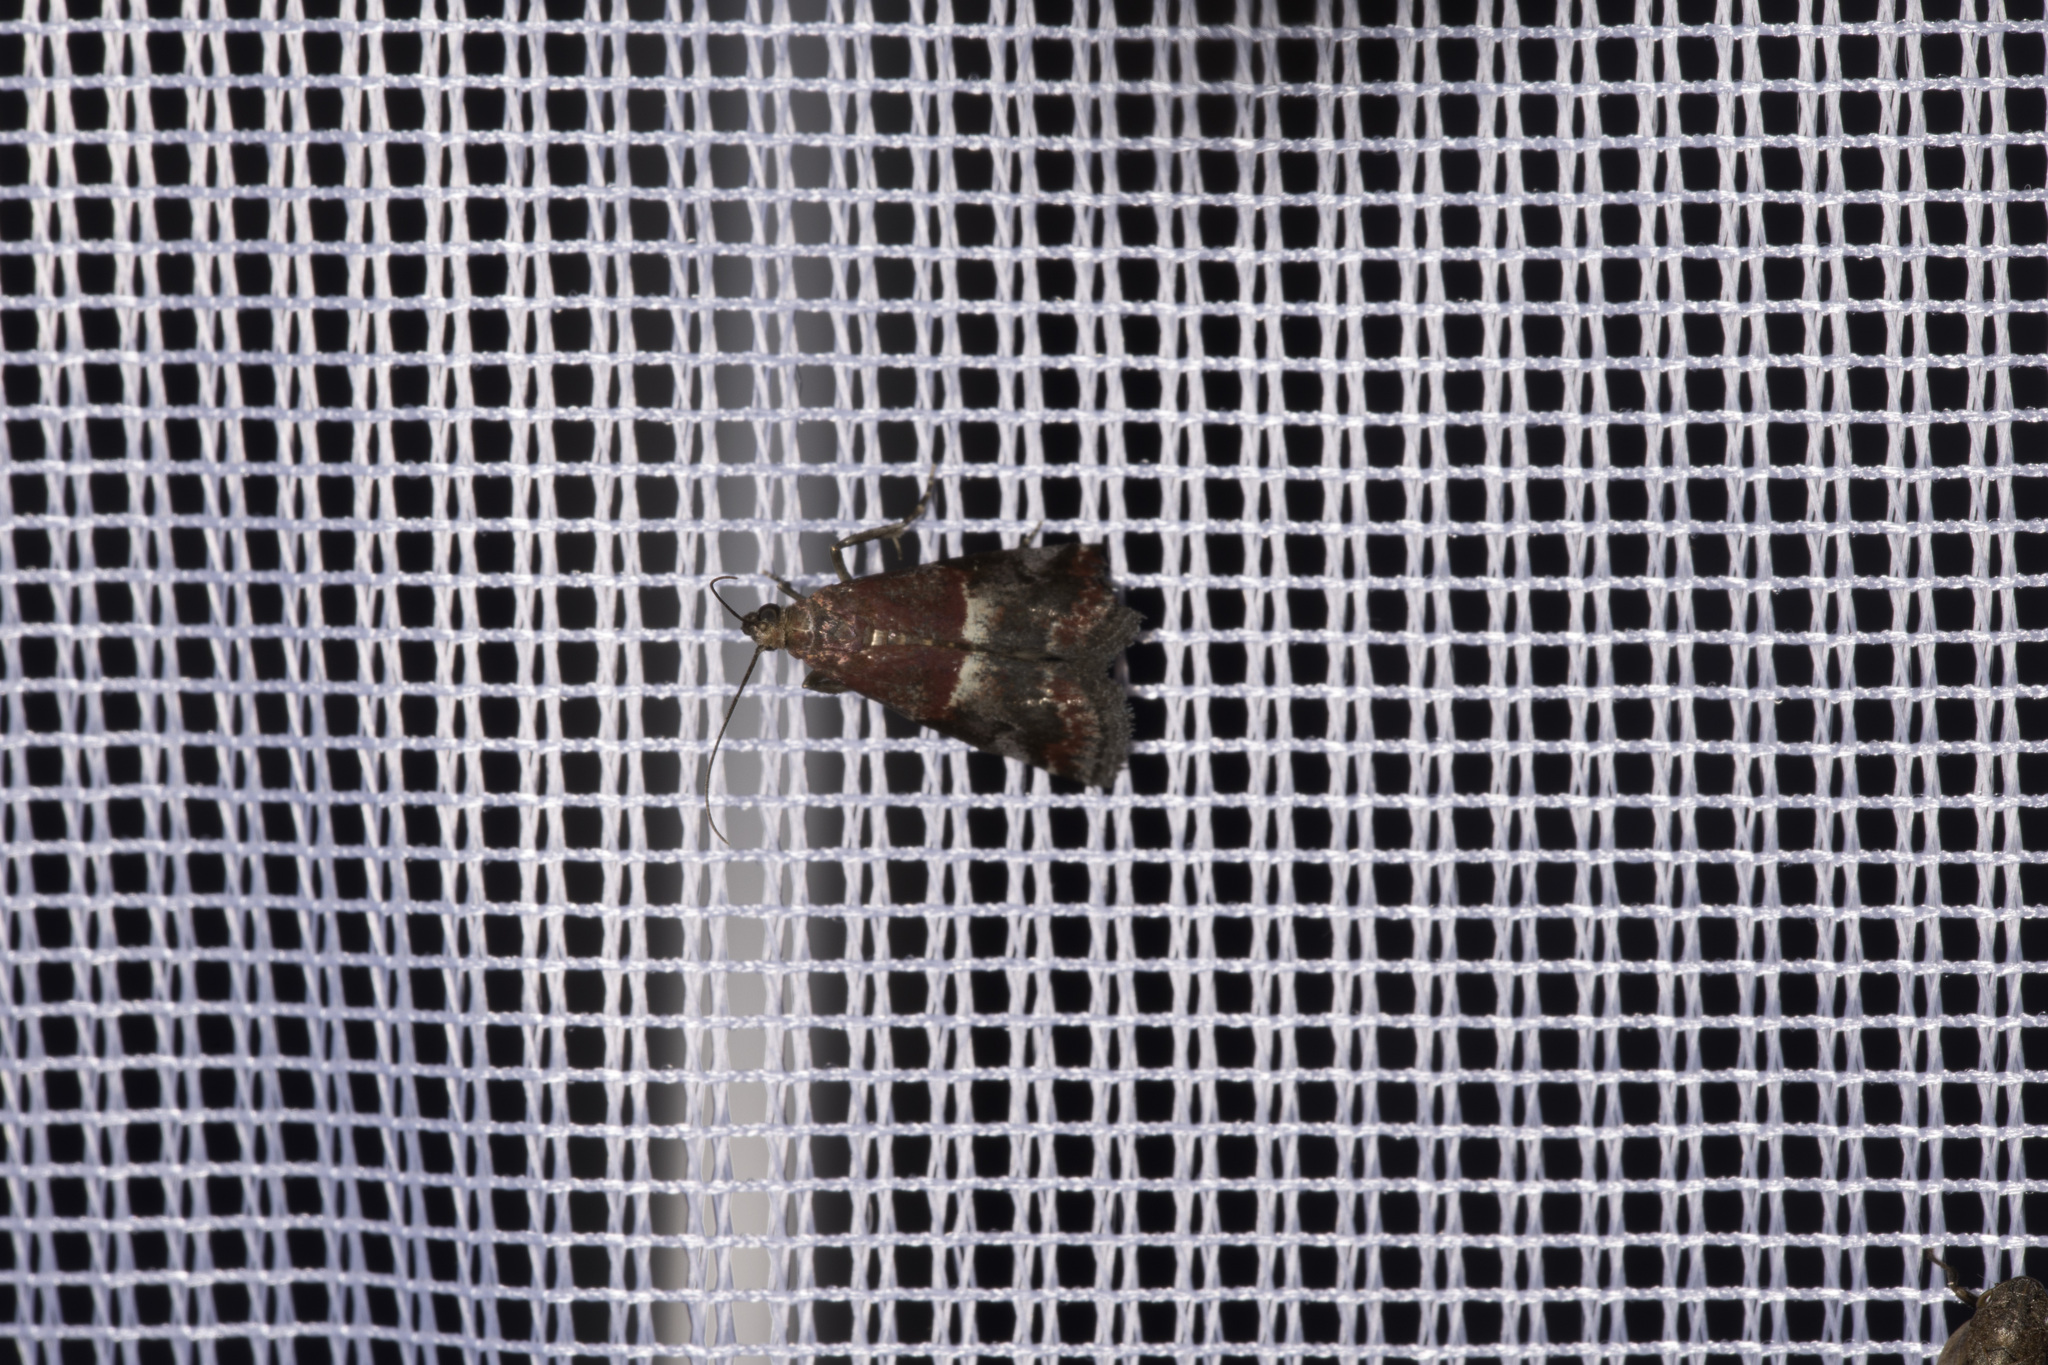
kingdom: Animalia
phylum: Arthropoda
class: Insecta
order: Lepidoptera
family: Pyralidae
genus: Acrobasis
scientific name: Acrobasis marmorea
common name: Marbled knot-horn
